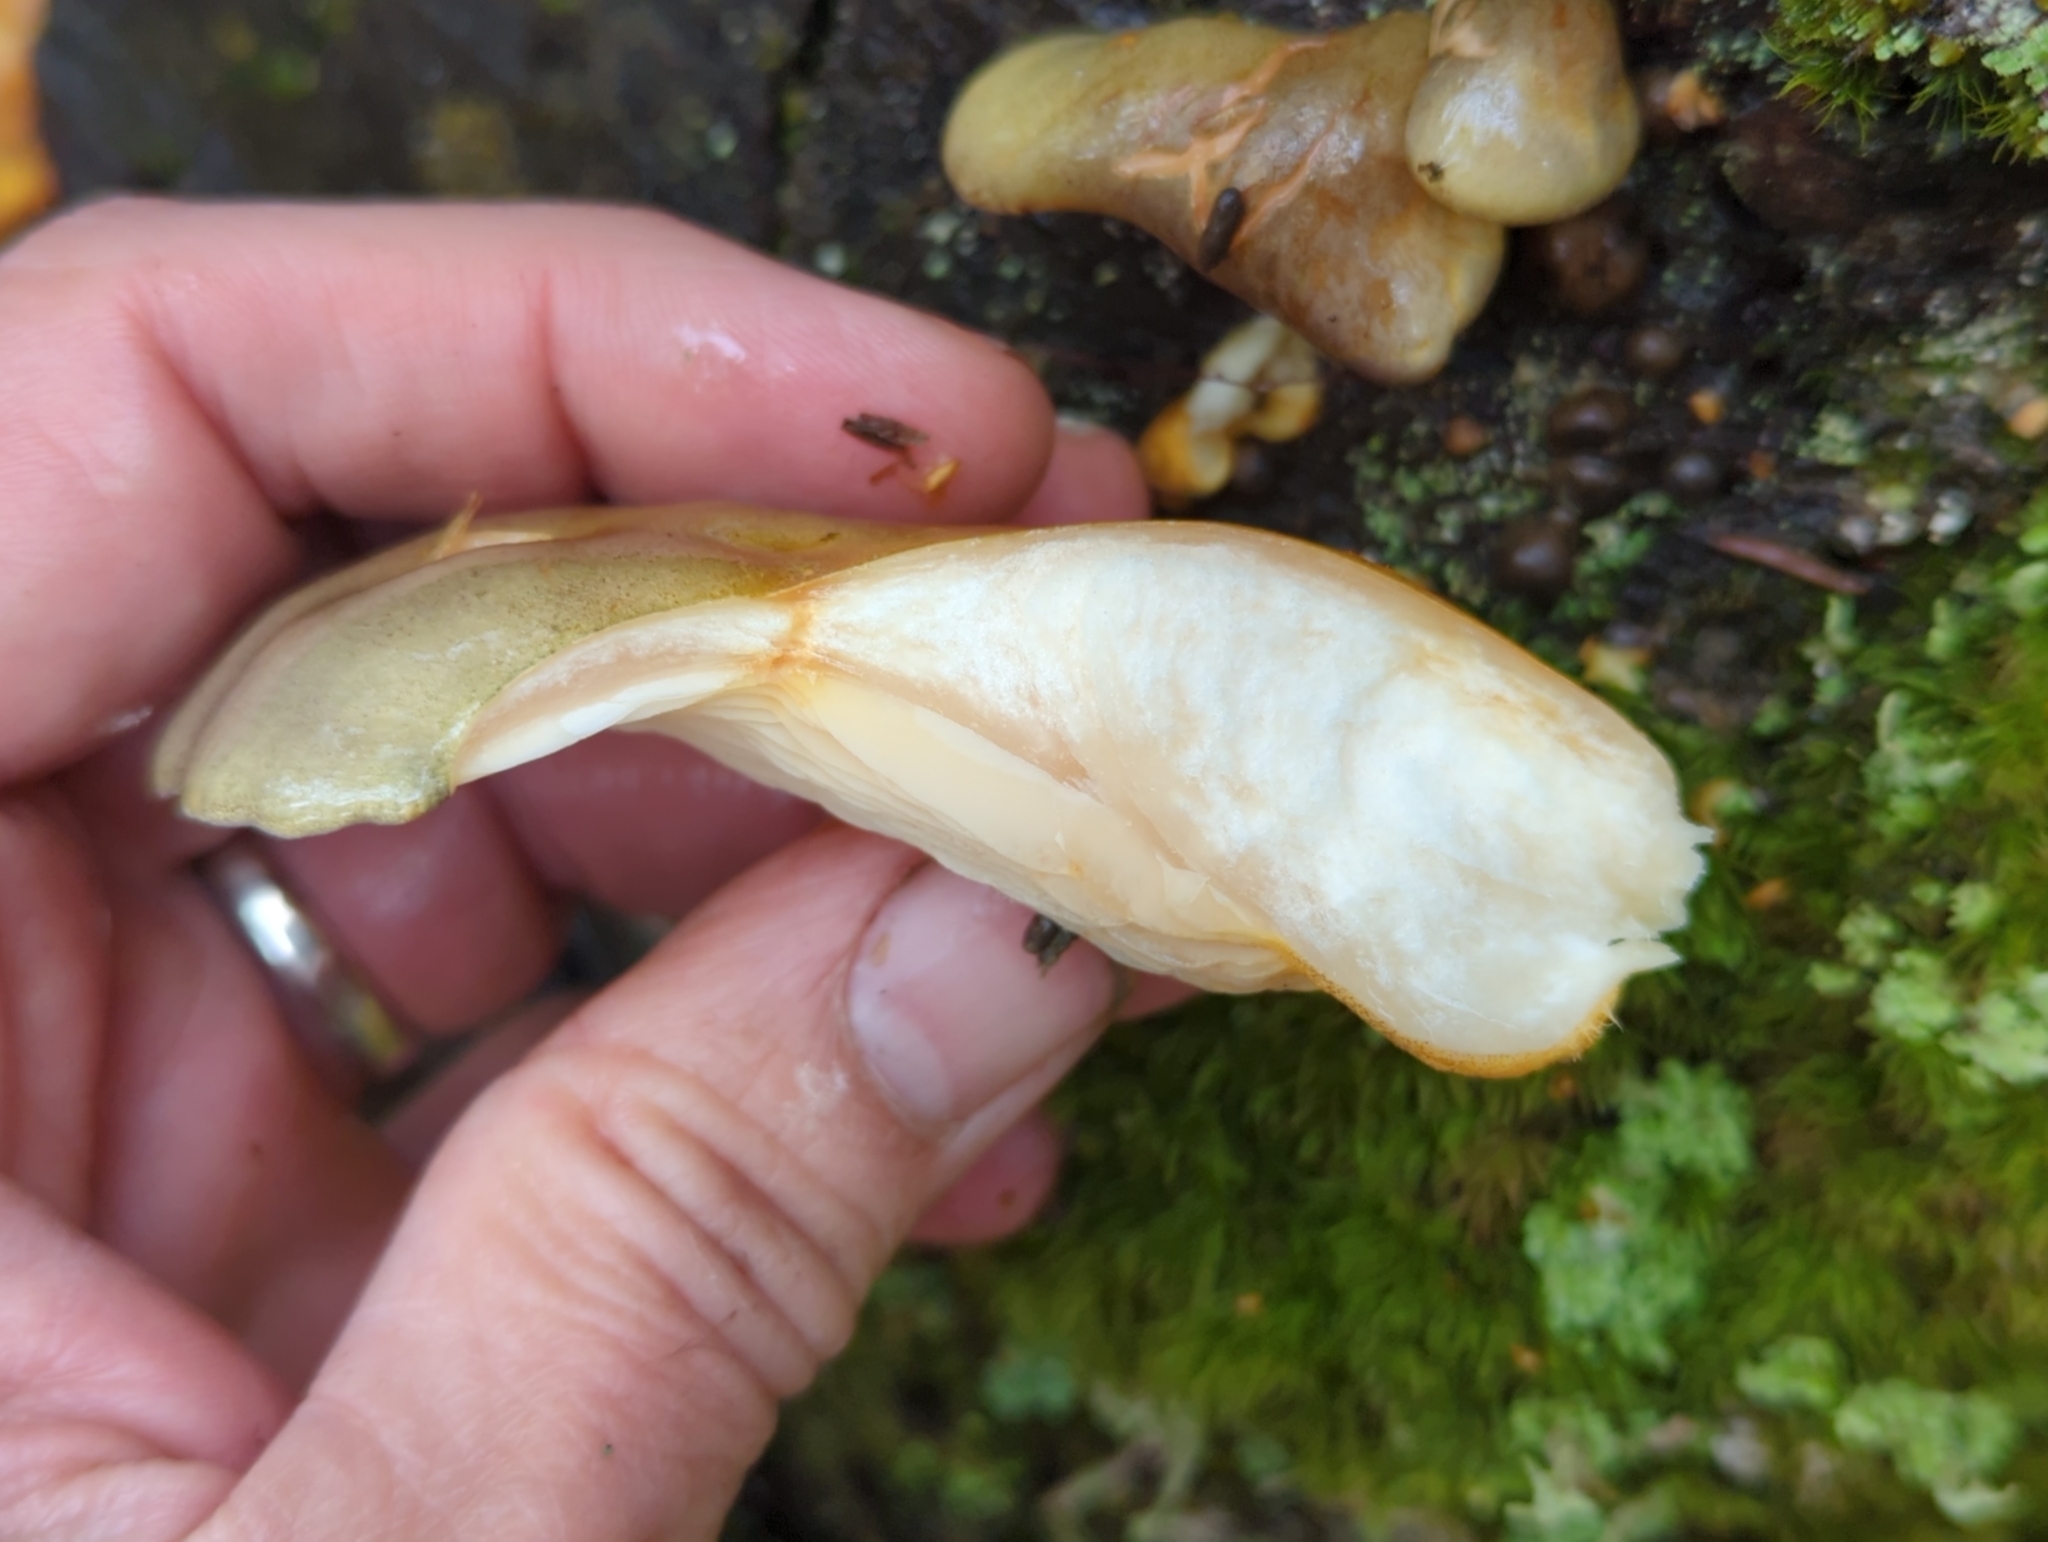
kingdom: Fungi
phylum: Basidiomycota
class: Agaricomycetes
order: Agaricales
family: Sarcomyxaceae
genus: Sarcomyxa
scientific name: Sarcomyxa serotina
